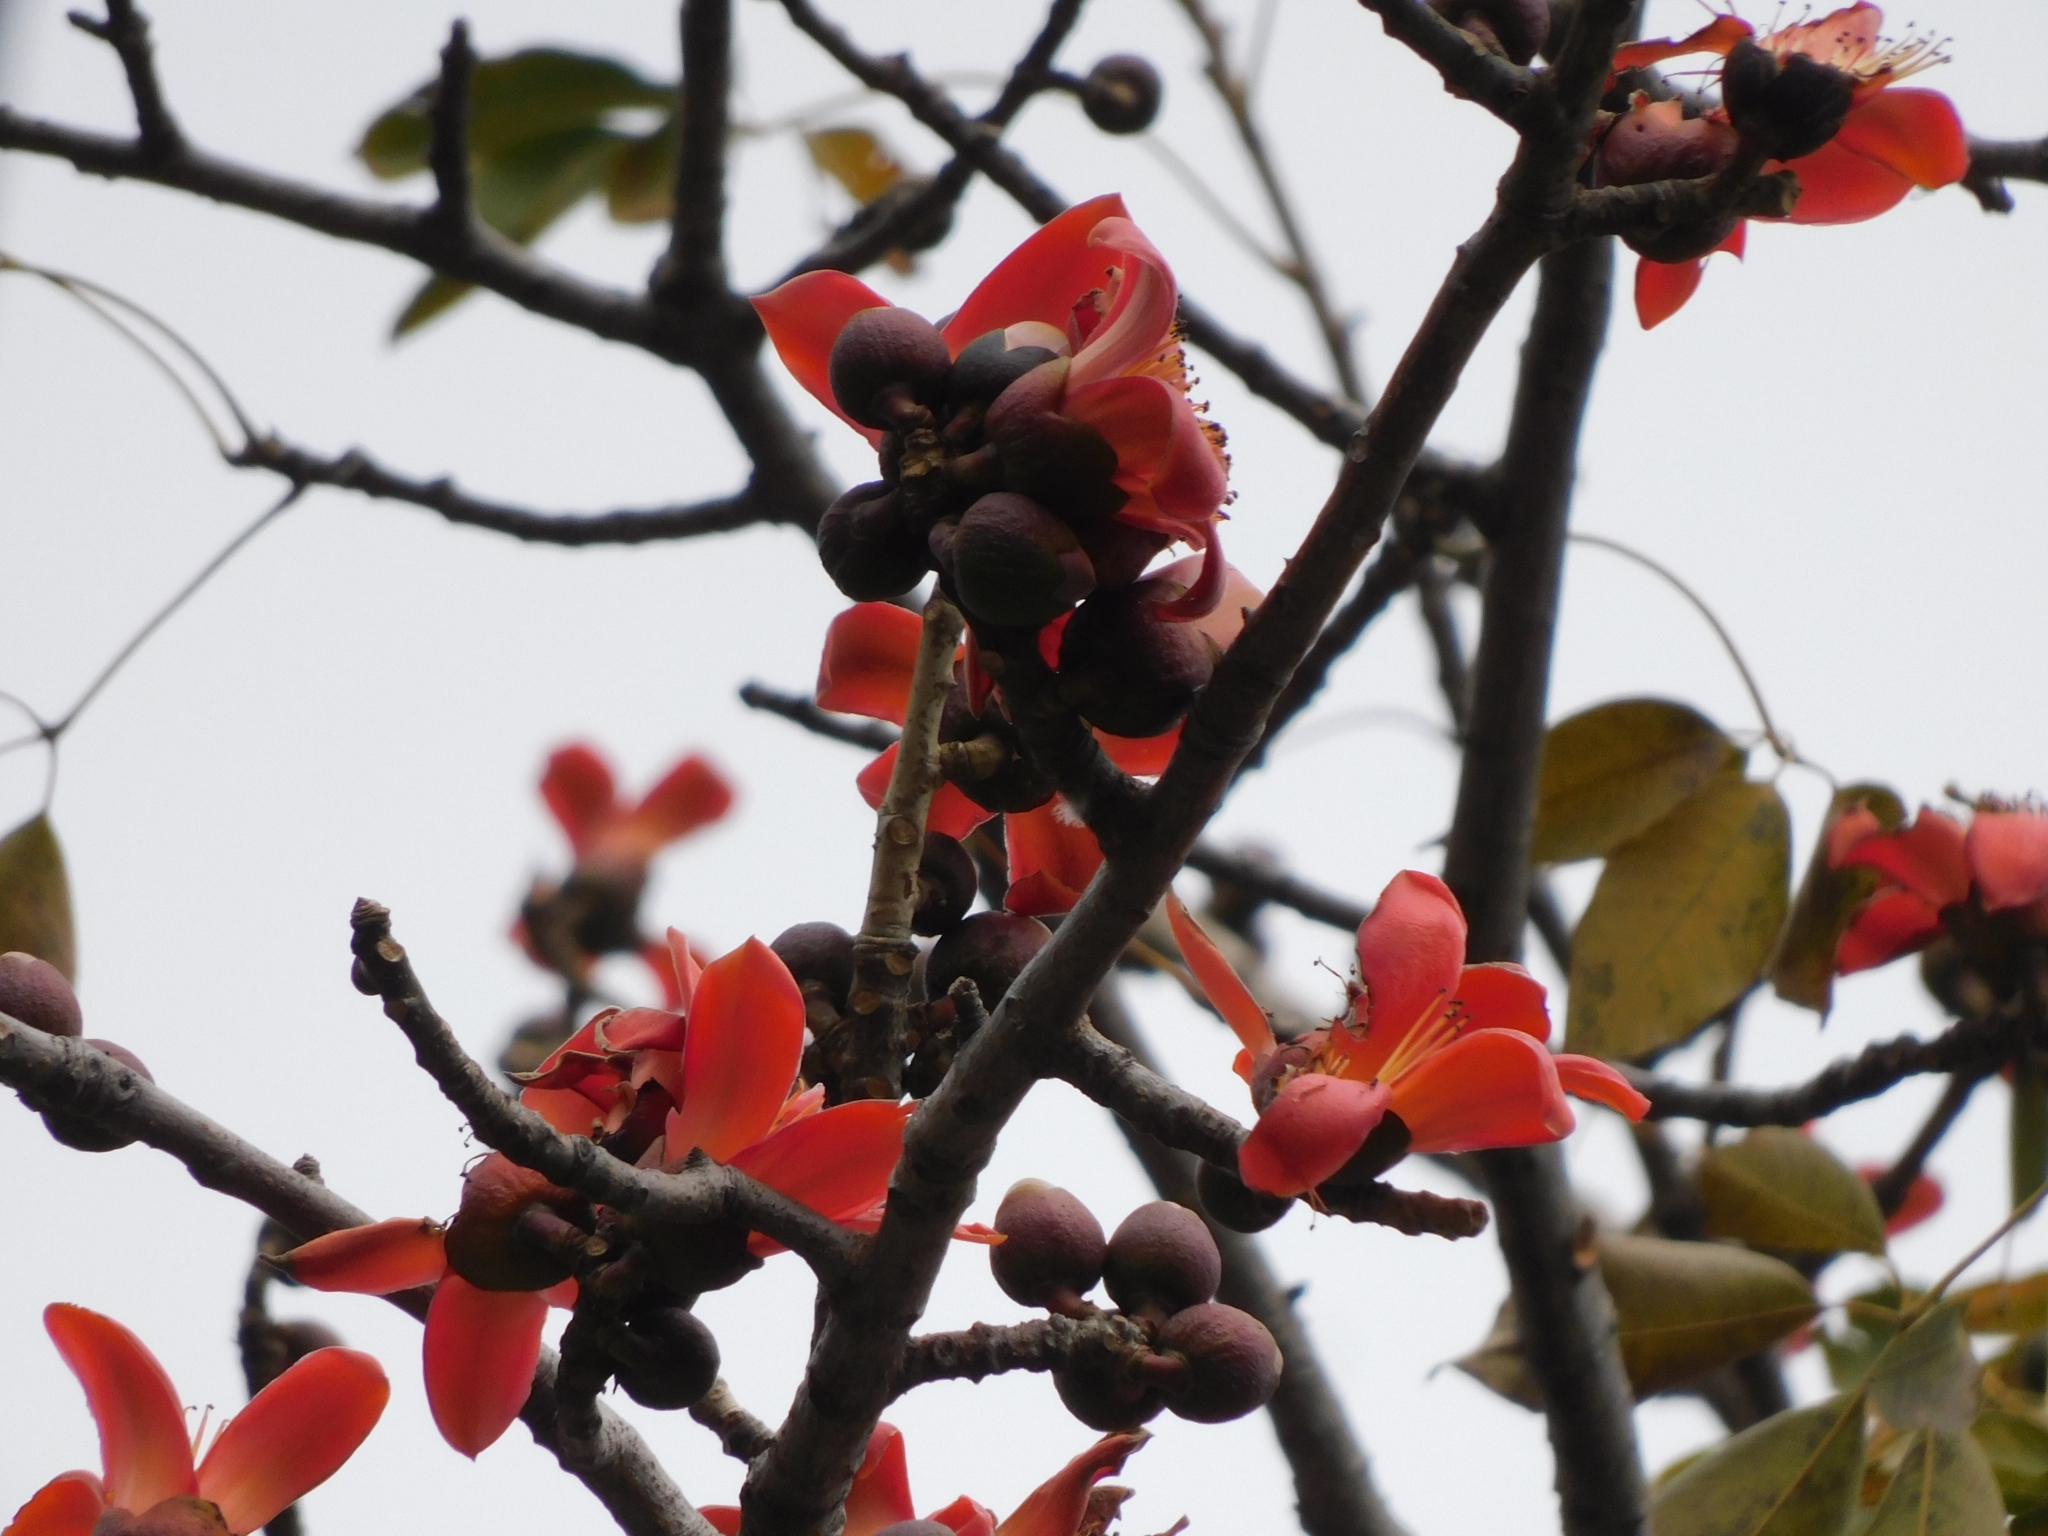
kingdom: Plantae
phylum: Tracheophyta
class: Magnoliopsida
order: Malvales
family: Malvaceae
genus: Bombax
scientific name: Bombax ceiba
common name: Northern-cottonwood
